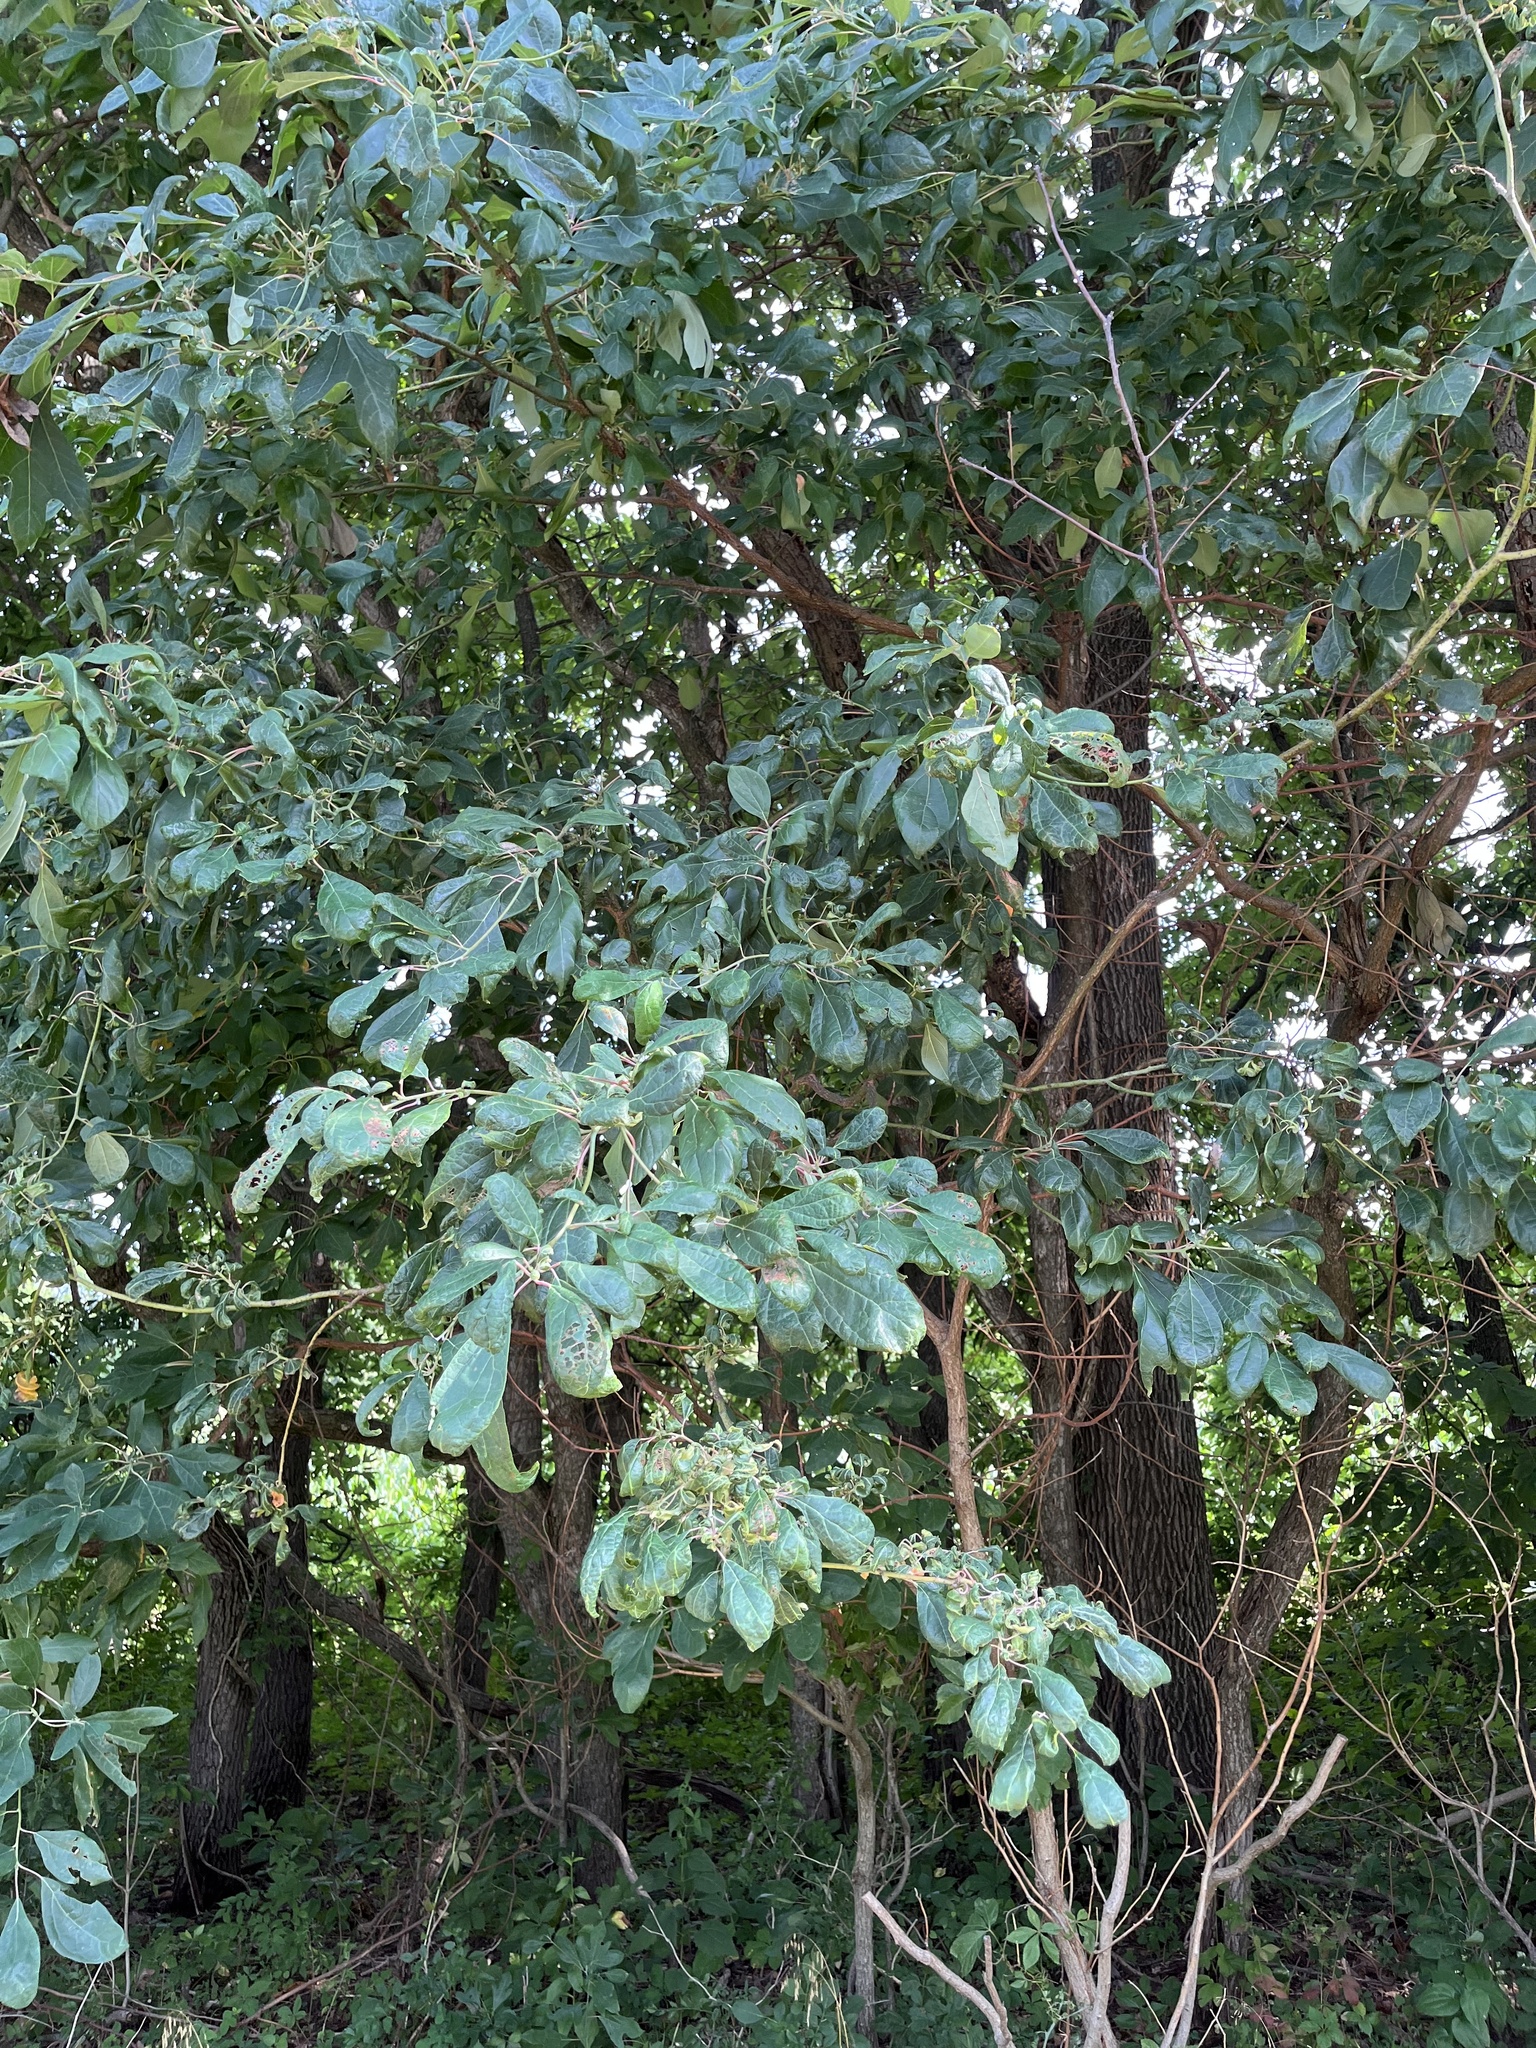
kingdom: Plantae
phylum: Tracheophyta
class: Magnoliopsida
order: Laurales
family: Lauraceae
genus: Sassafras
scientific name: Sassafras albidum
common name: Sassafras
